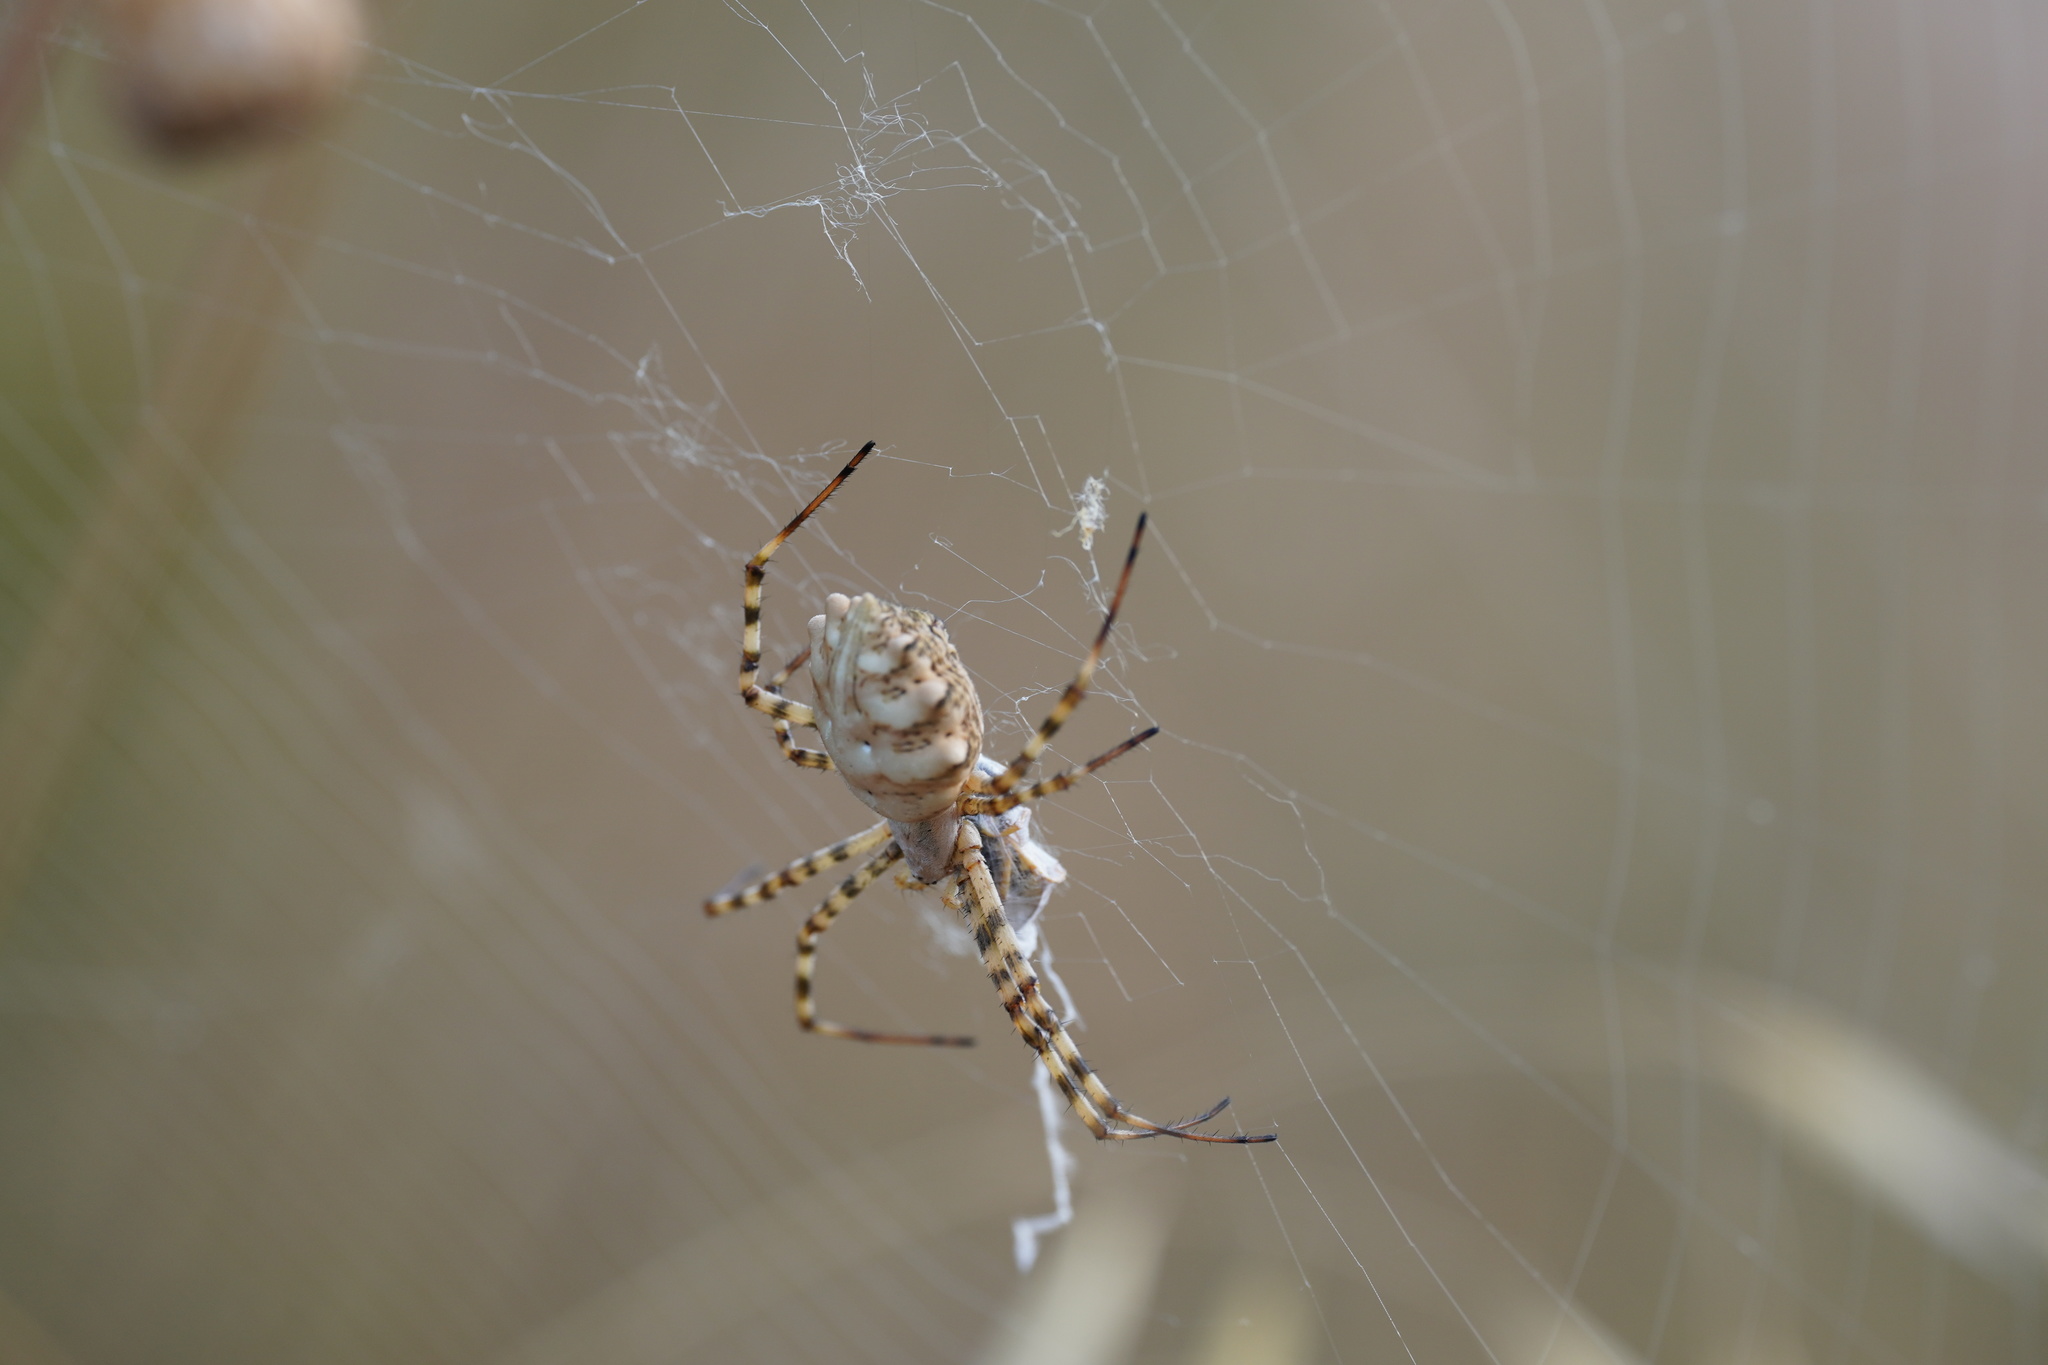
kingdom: Animalia
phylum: Arthropoda
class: Arachnida
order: Araneae
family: Araneidae
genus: Argiope
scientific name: Argiope lobata
